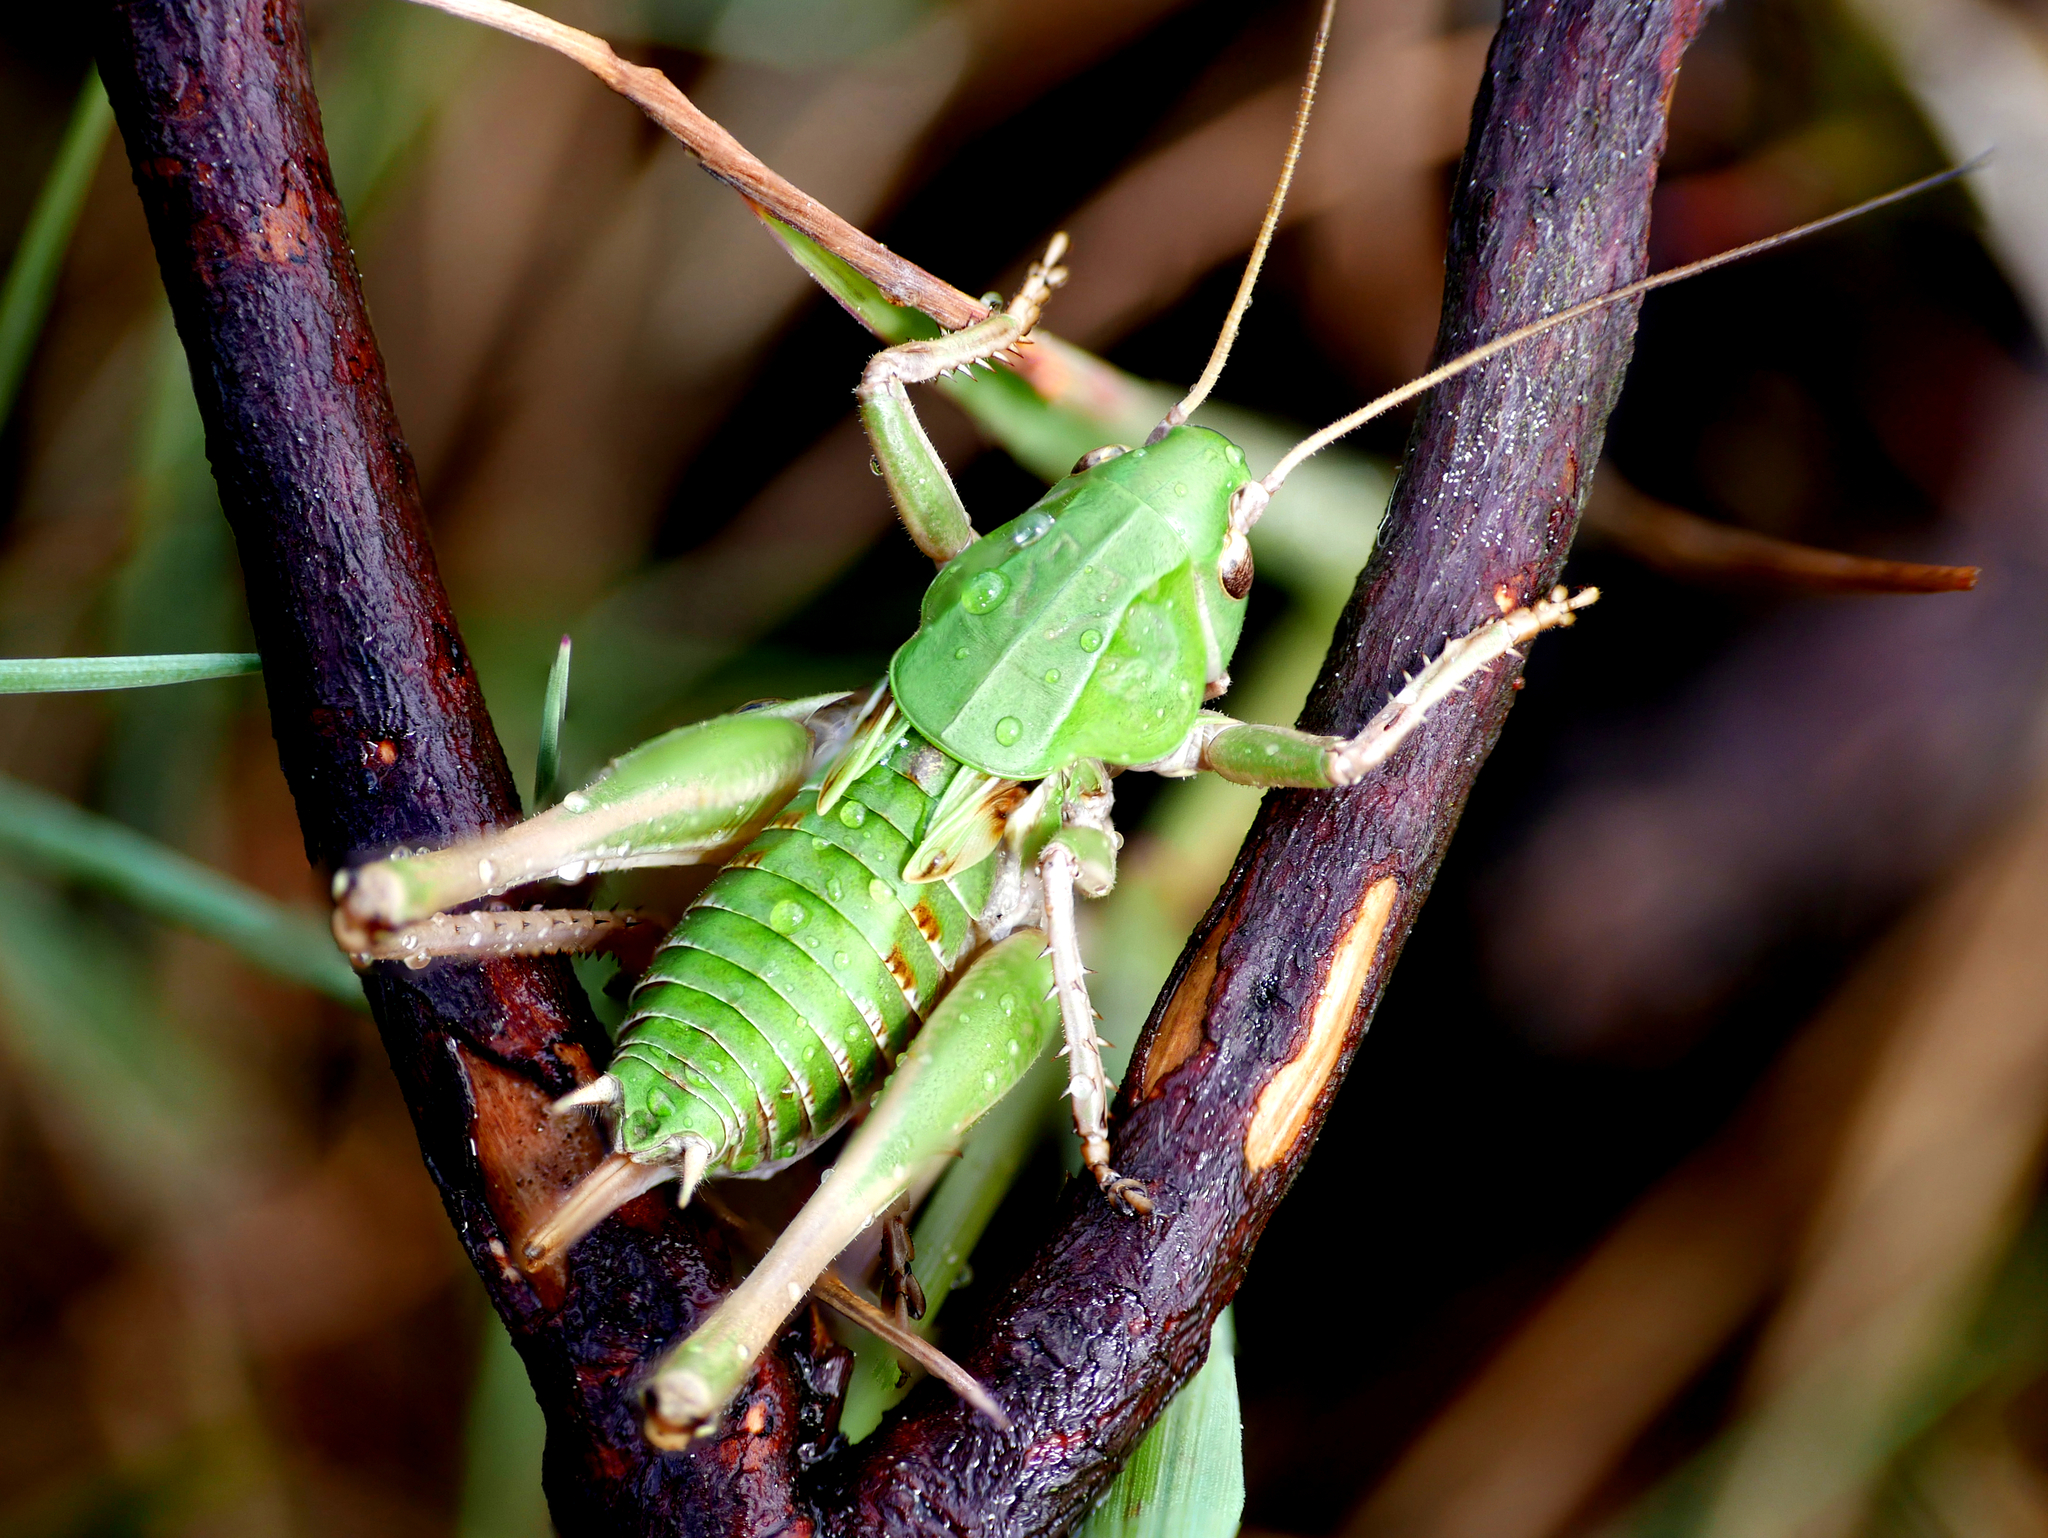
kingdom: Animalia
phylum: Arthropoda
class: Insecta
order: Orthoptera
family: Tettigoniidae
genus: Decticus
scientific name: Decticus verrucivorus
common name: Wart-biter
